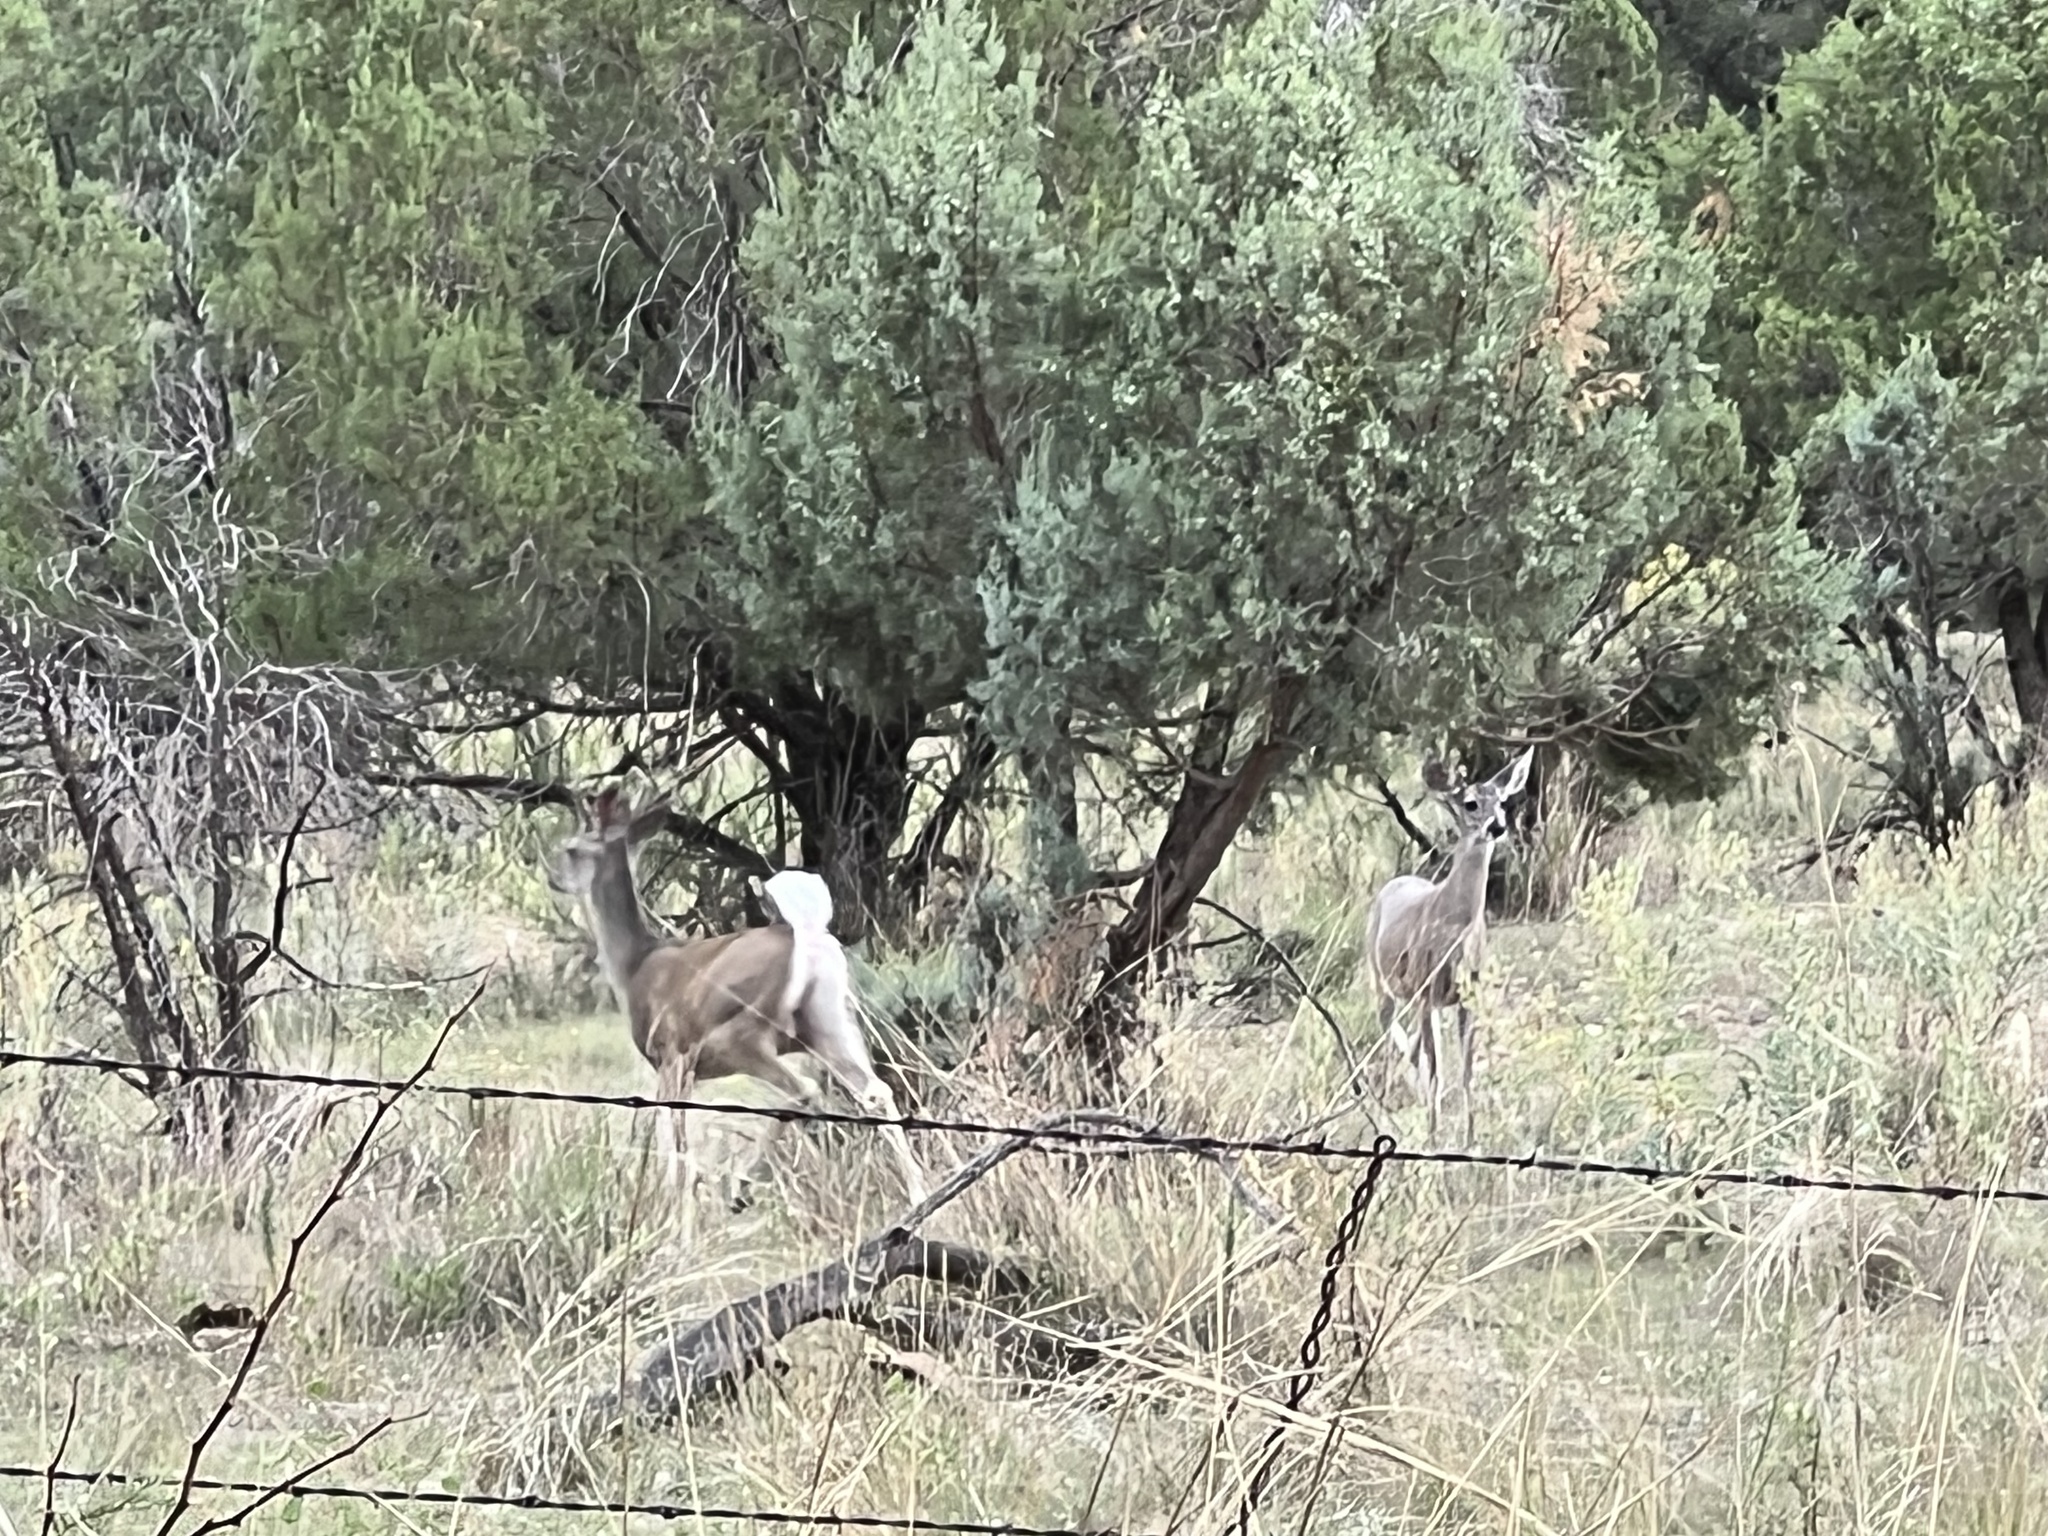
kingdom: Animalia
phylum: Chordata
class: Mammalia
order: Artiodactyla
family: Cervidae
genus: Odocoileus
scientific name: Odocoileus virginianus
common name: White-tailed deer
